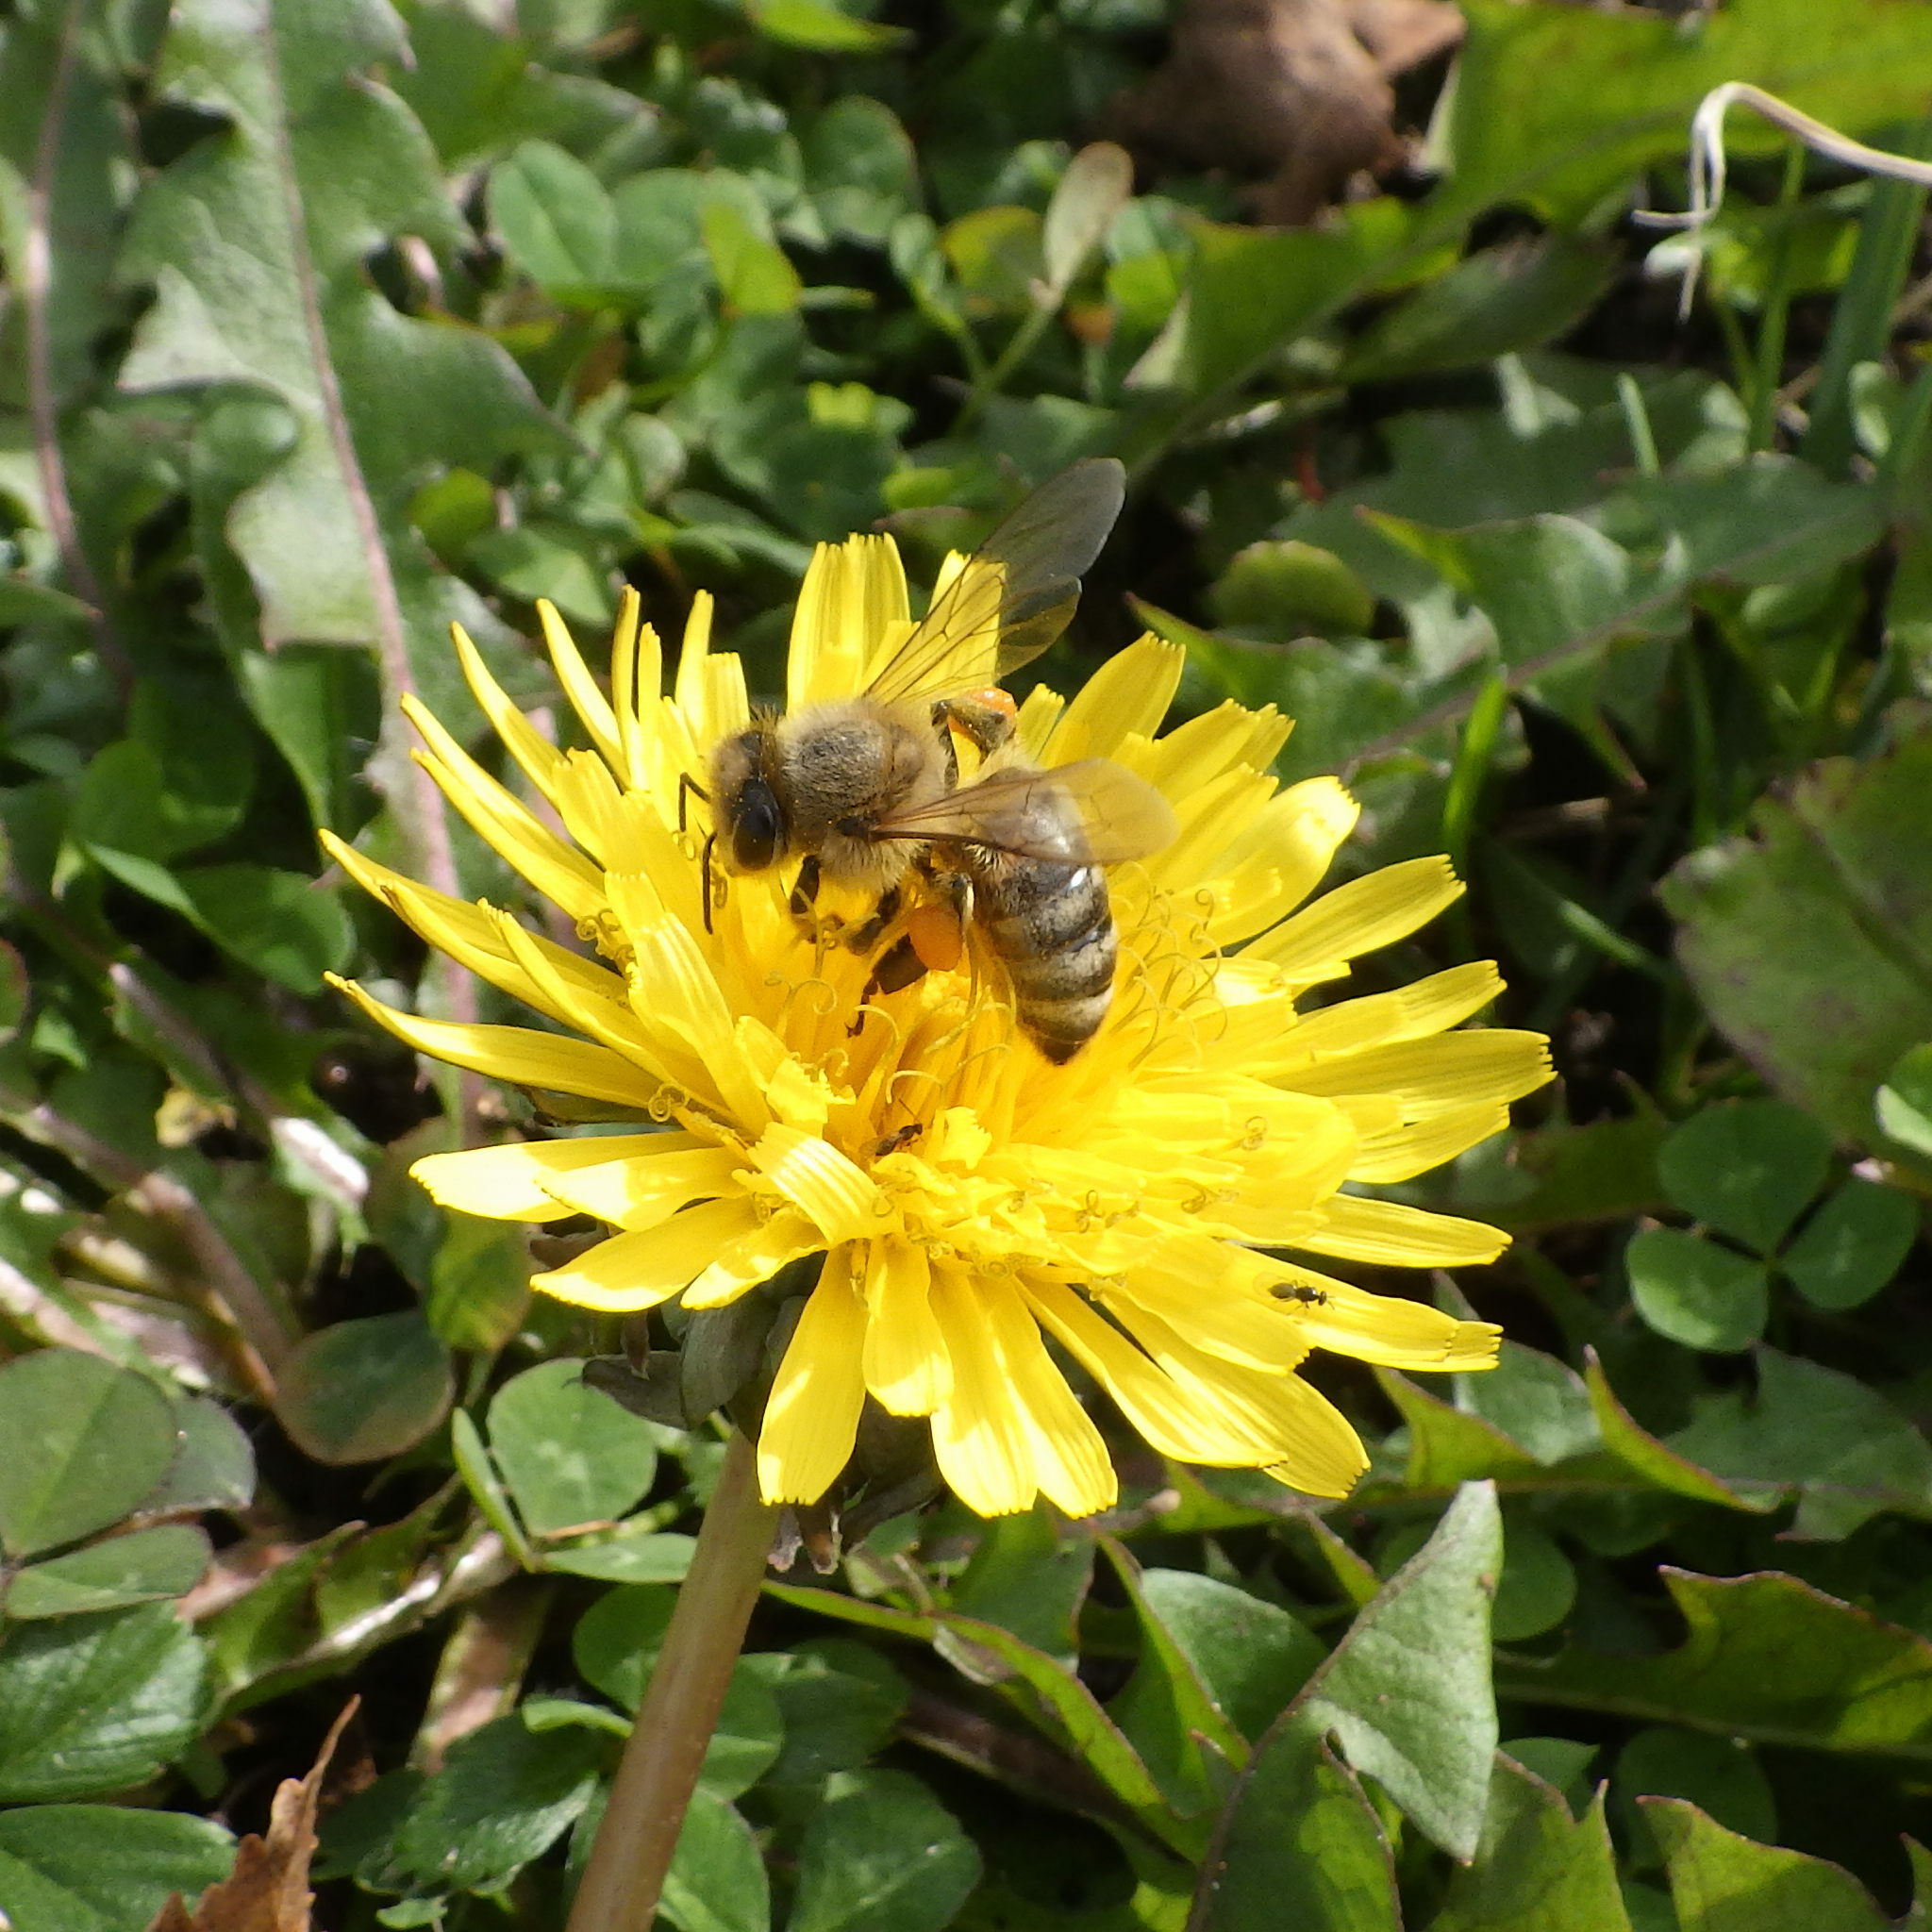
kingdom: Animalia
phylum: Arthropoda
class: Insecta
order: Hymenoptera
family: Apidae
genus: Apis
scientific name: Apis mellifera
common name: Honey bee
